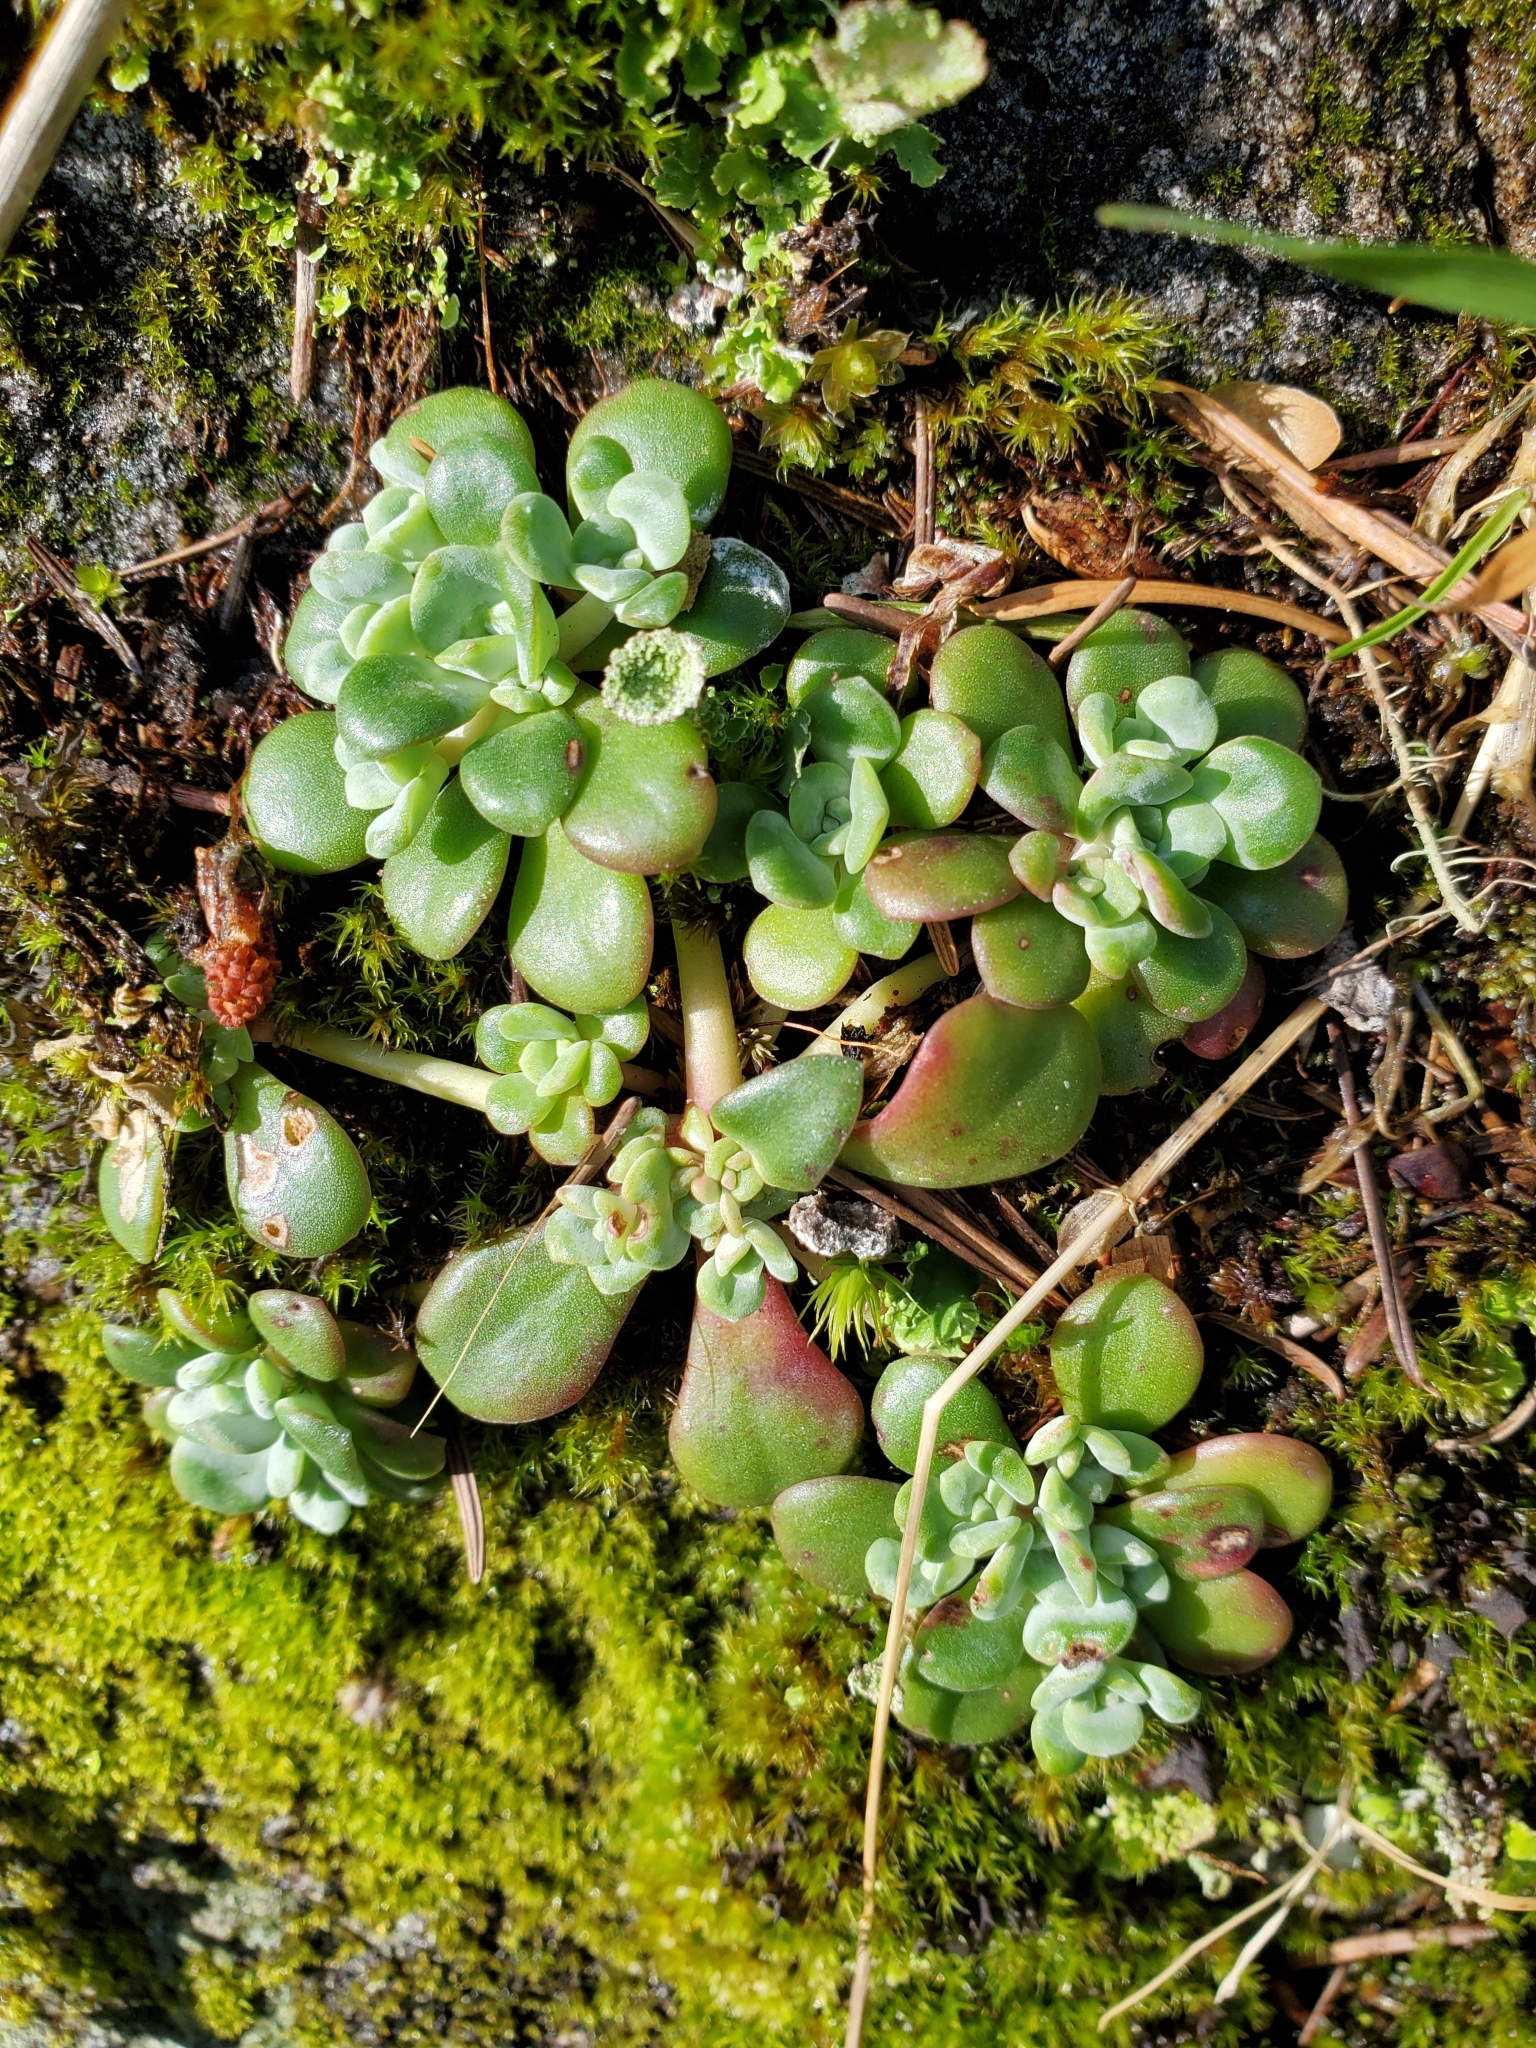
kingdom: Plantae
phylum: Tracheophyta
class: Magnoliopsida
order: Saxifragales
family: Crassulaceae
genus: Sedum
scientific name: Sedum spathulifolium
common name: Colorado stonecrop
